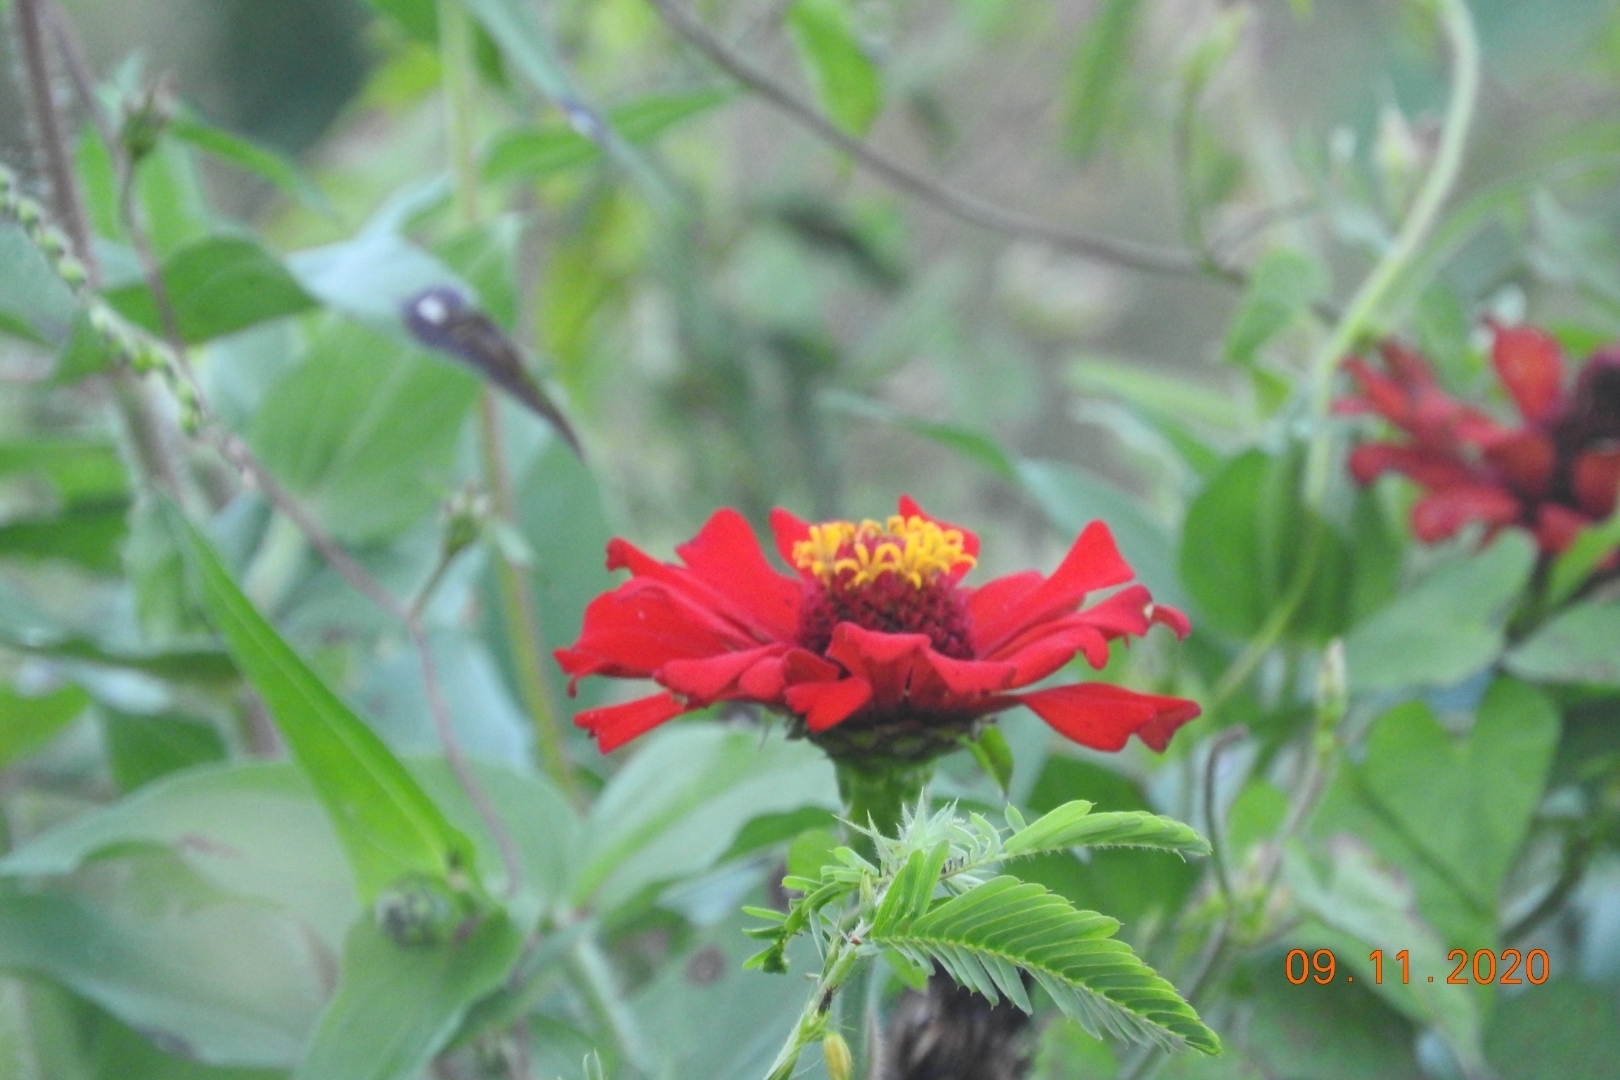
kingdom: Plantae
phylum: Tracheophyta
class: Magnoliopsida
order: Asterales
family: Asteraceae
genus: Zinnia
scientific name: Zinnia elegans
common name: Youth-and-age
